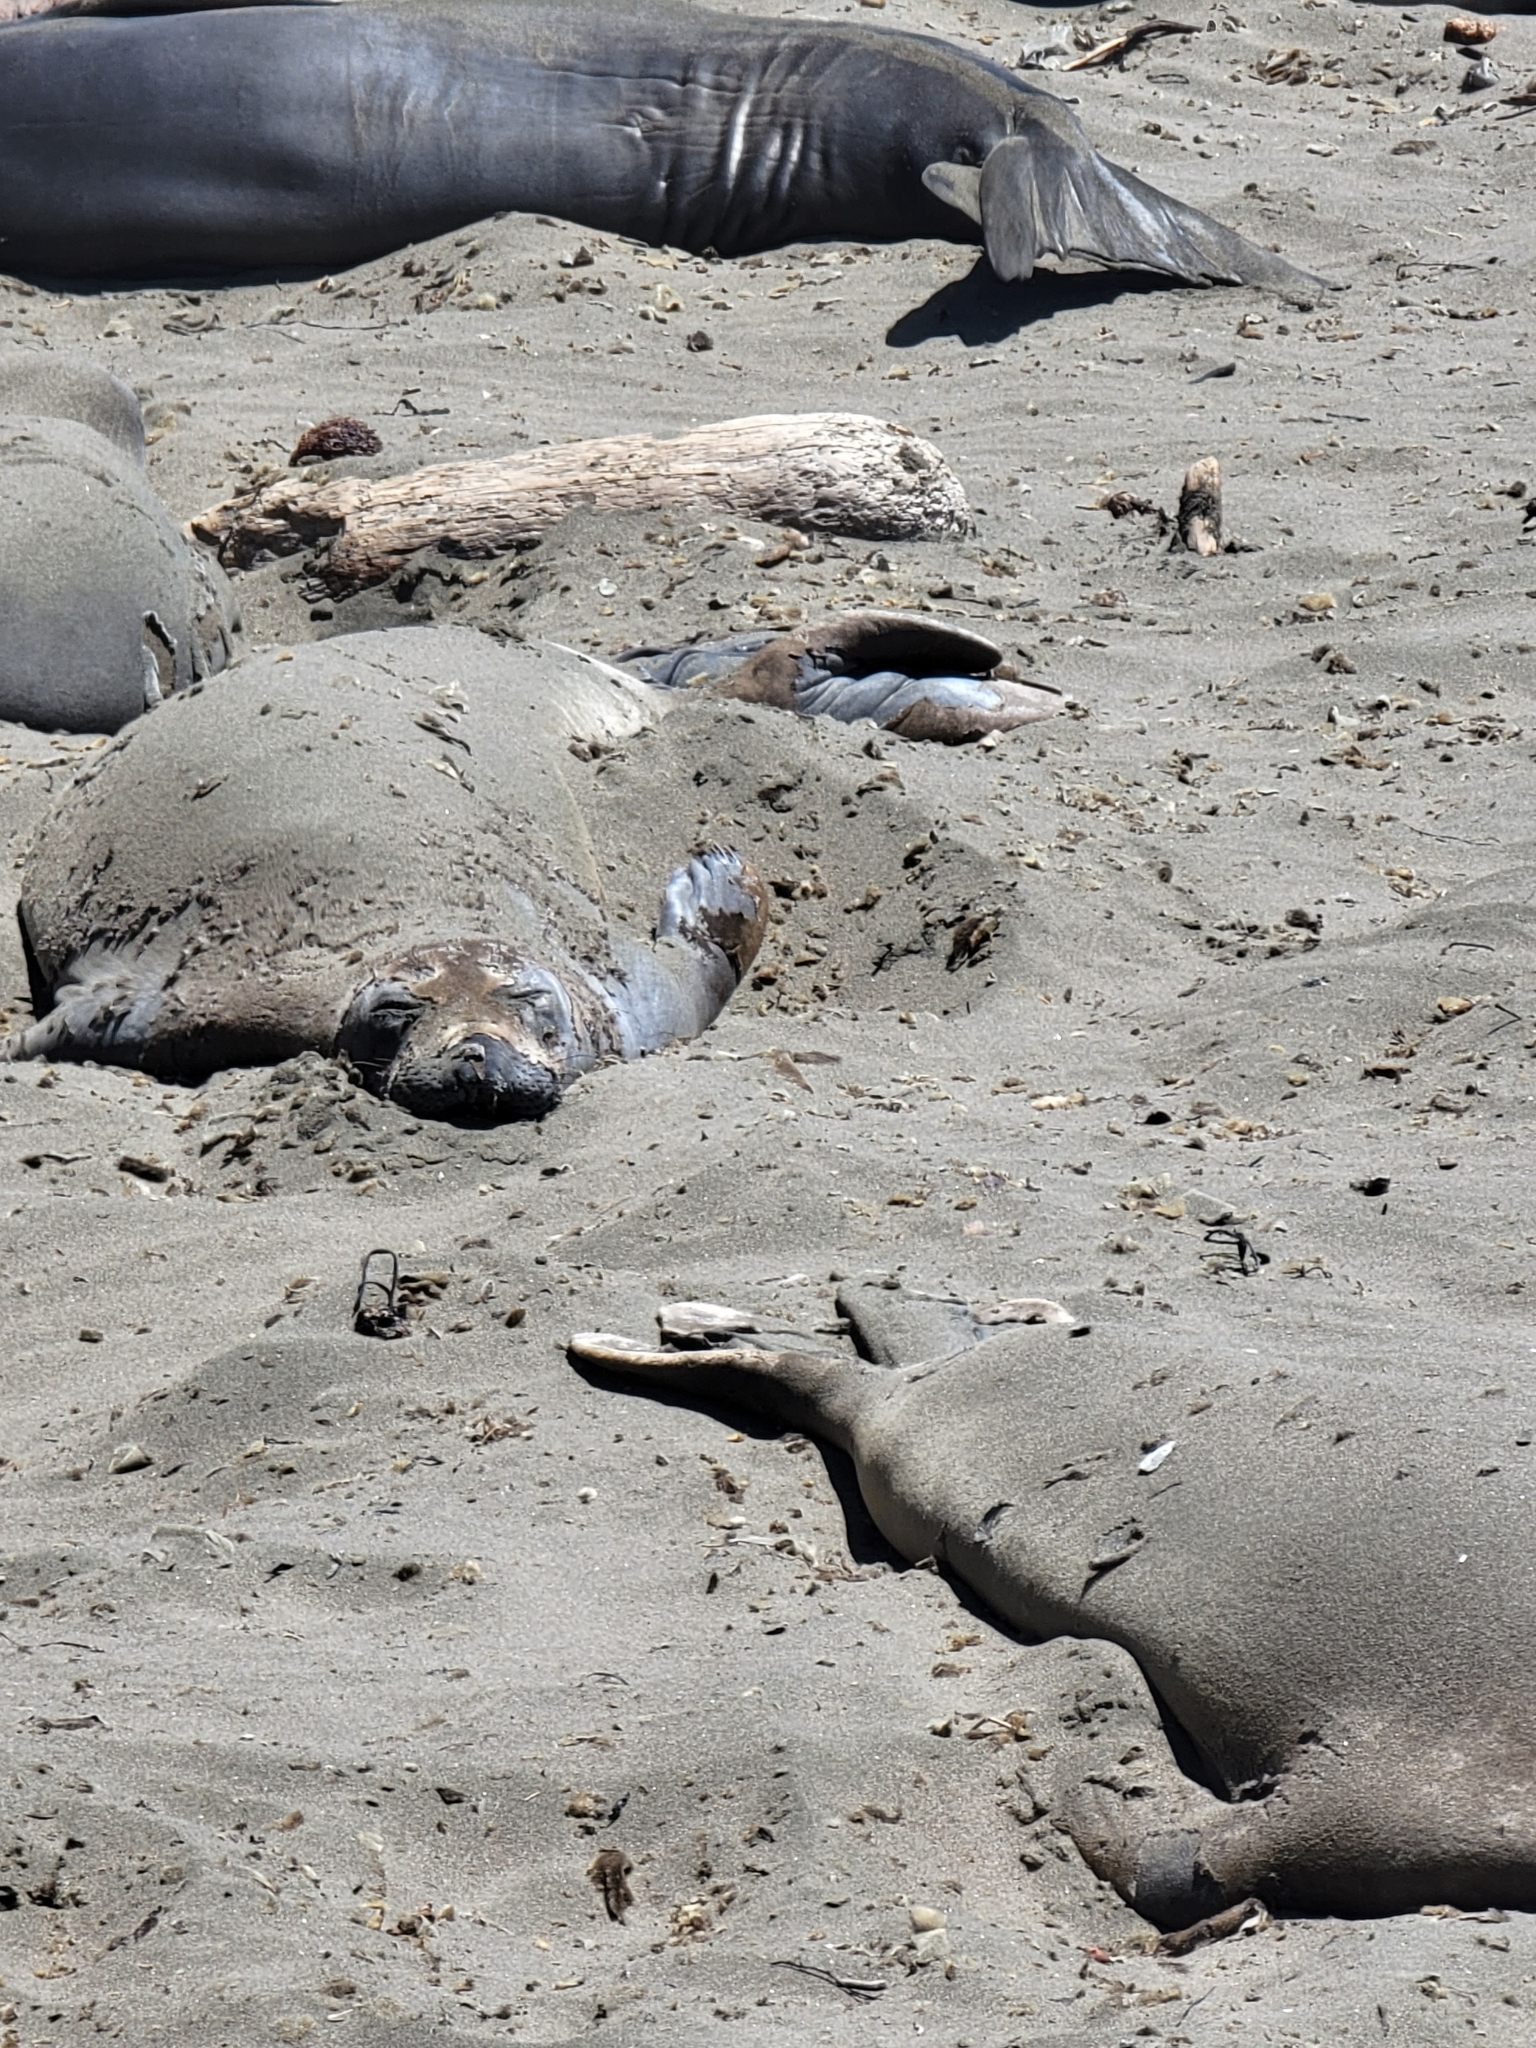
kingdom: Animalia
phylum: Chordata
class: Mammalia
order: Carnivora
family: Phocidae
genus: Mirounga
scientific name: Mirounga angustirostris
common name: Northern elephant seal
